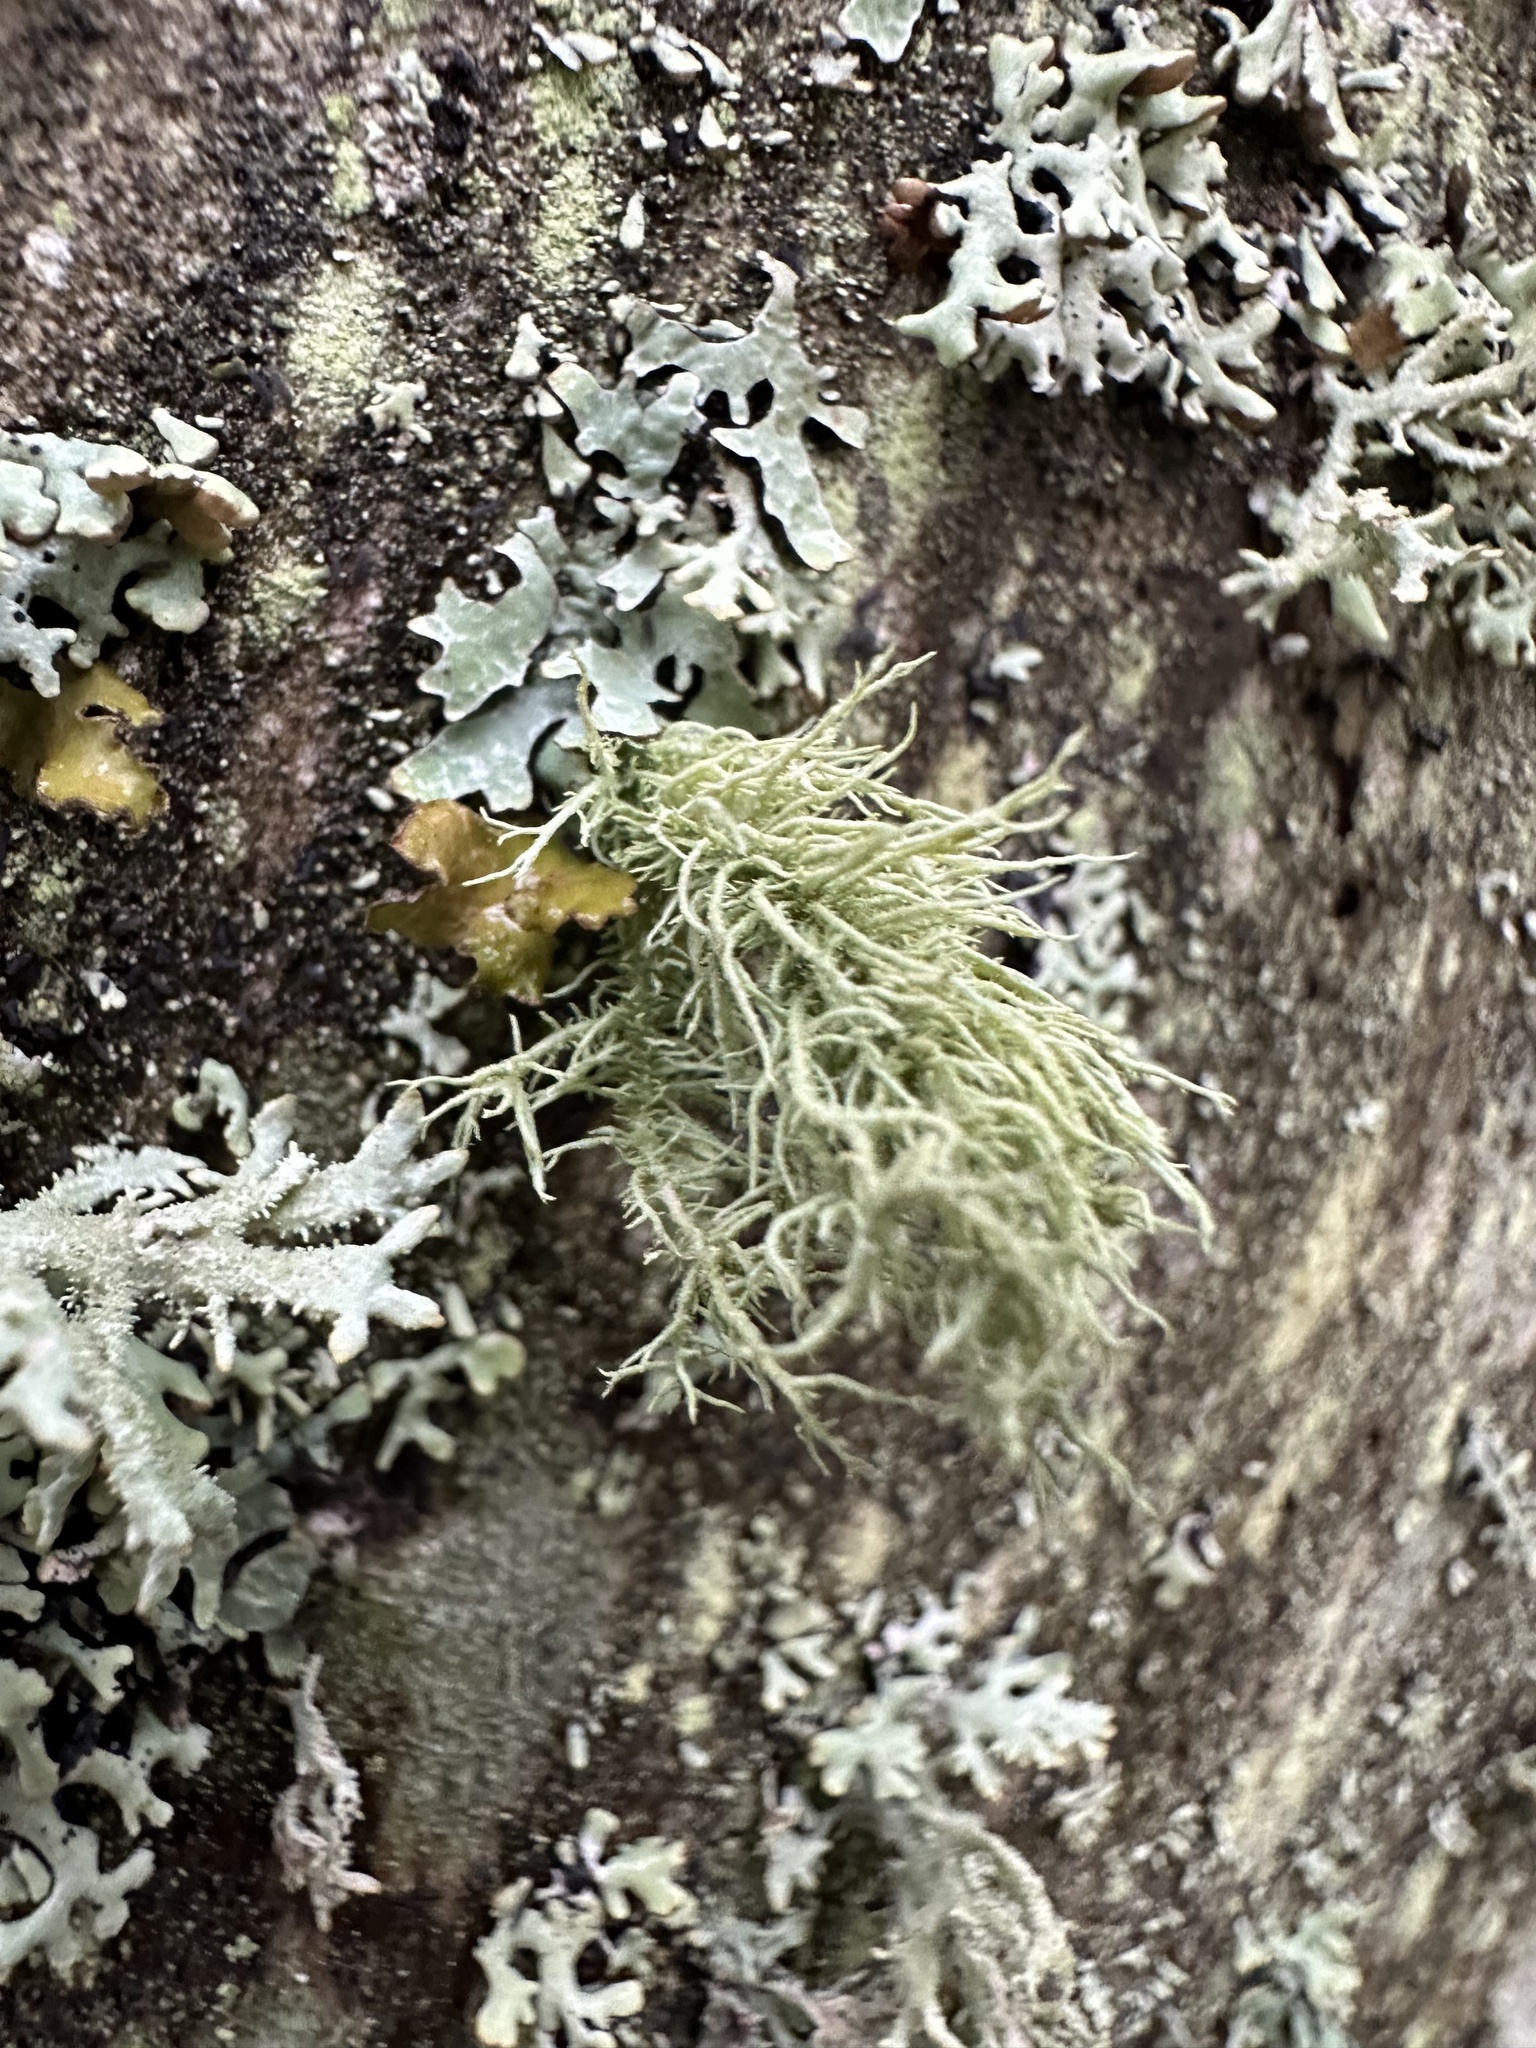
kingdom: Fungi
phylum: Ascomycota
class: Lecanoromycetes
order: Lecanorales
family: Parmeliaceae
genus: Usnea
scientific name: Usnea hirta
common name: Bristly beard lichen
